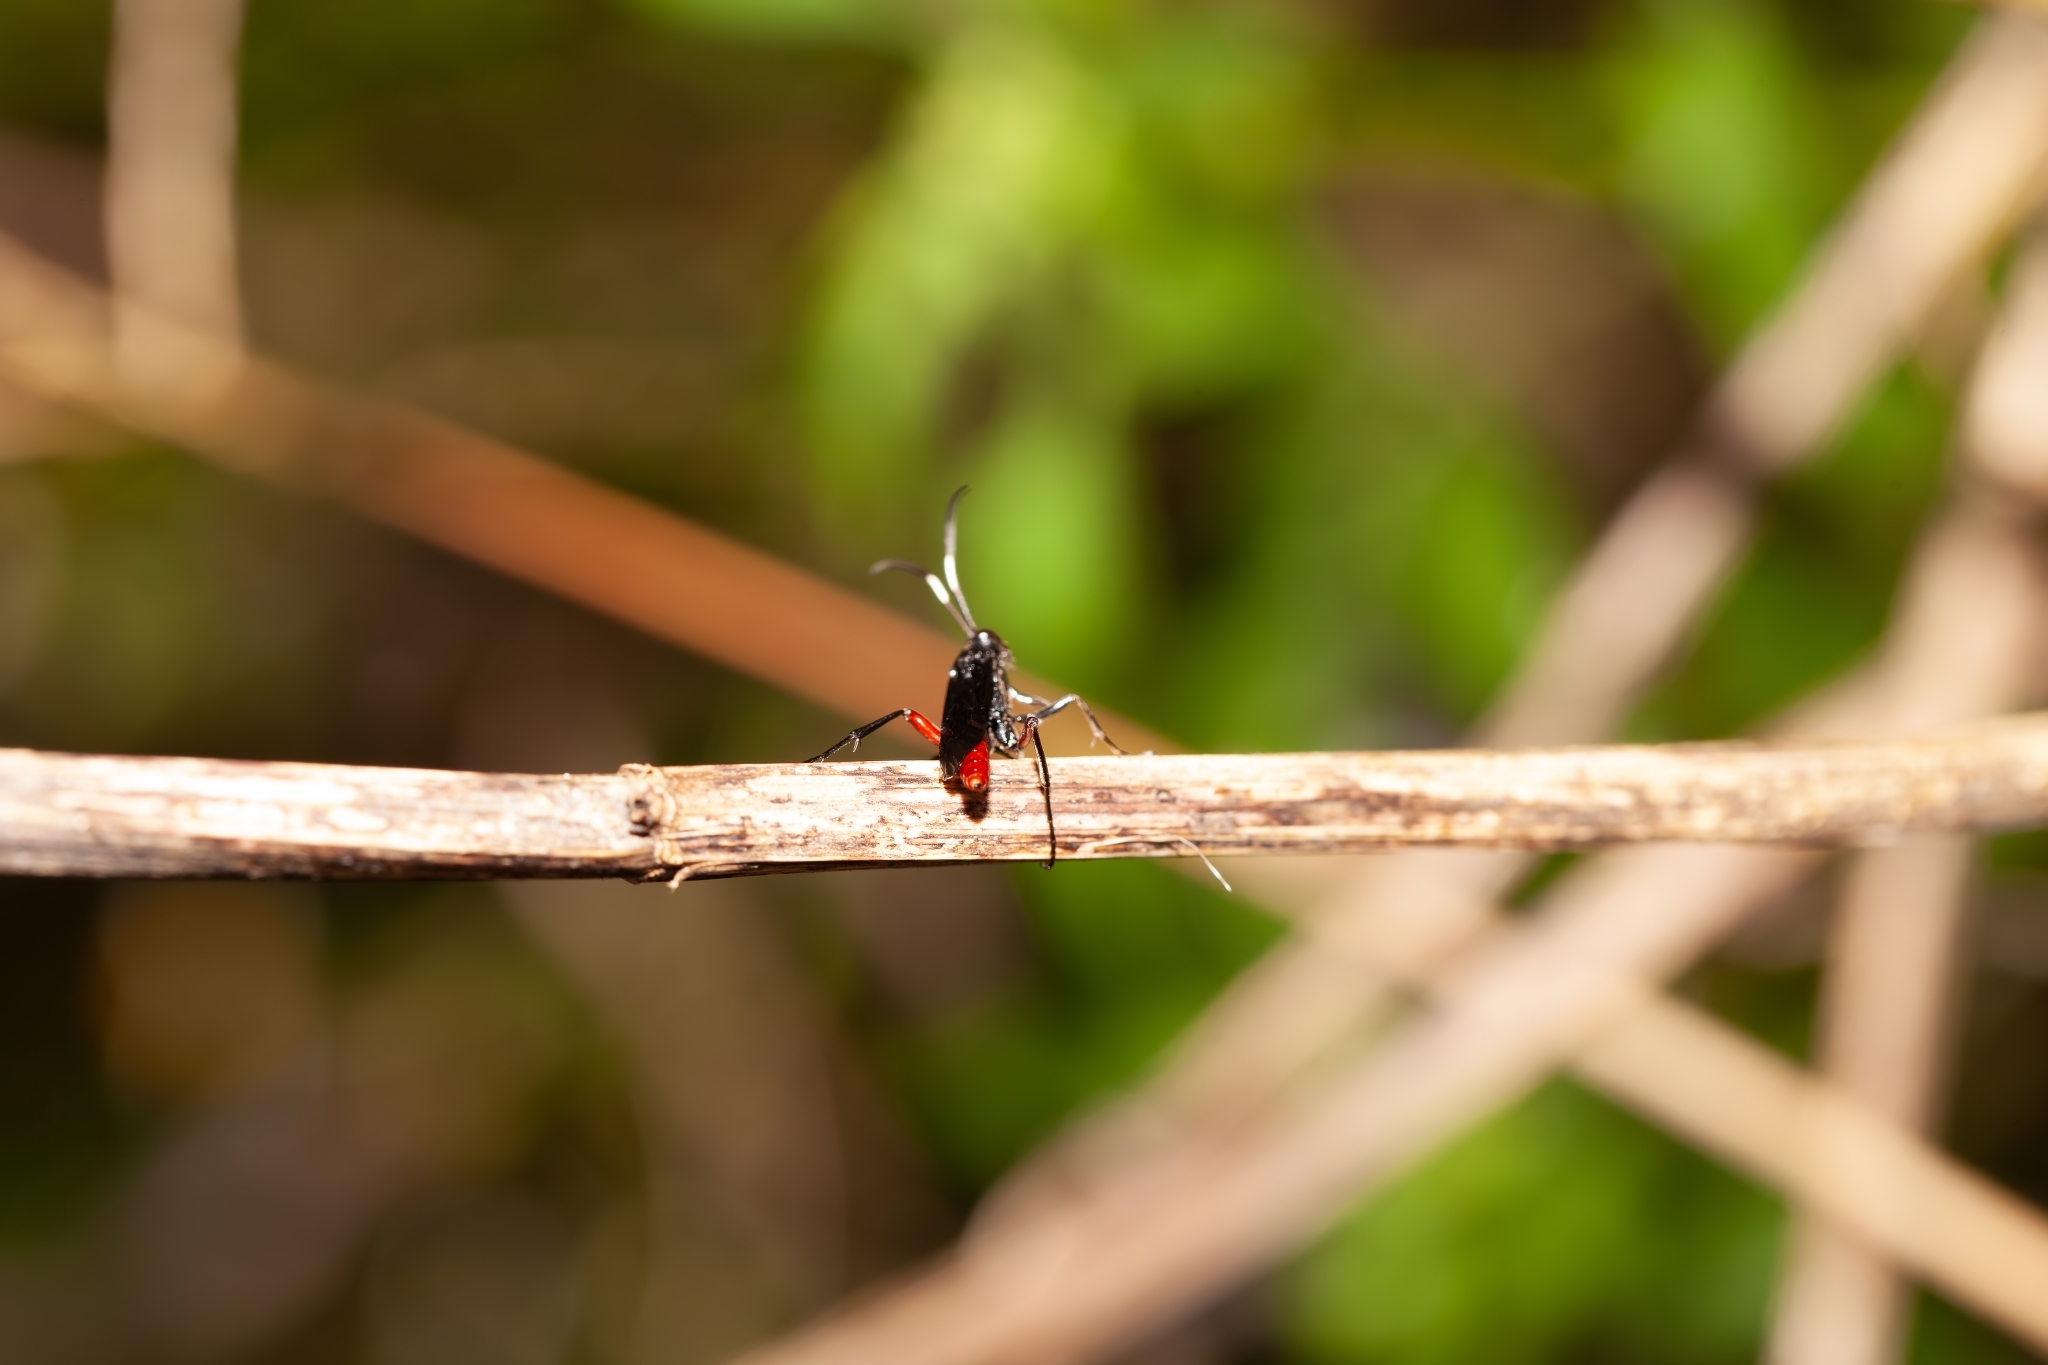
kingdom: Animalia
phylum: Arthropoda
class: Insecta
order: Hymenoptera
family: Ichneumonidae
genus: Limonethe
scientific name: Limonethe maurator
